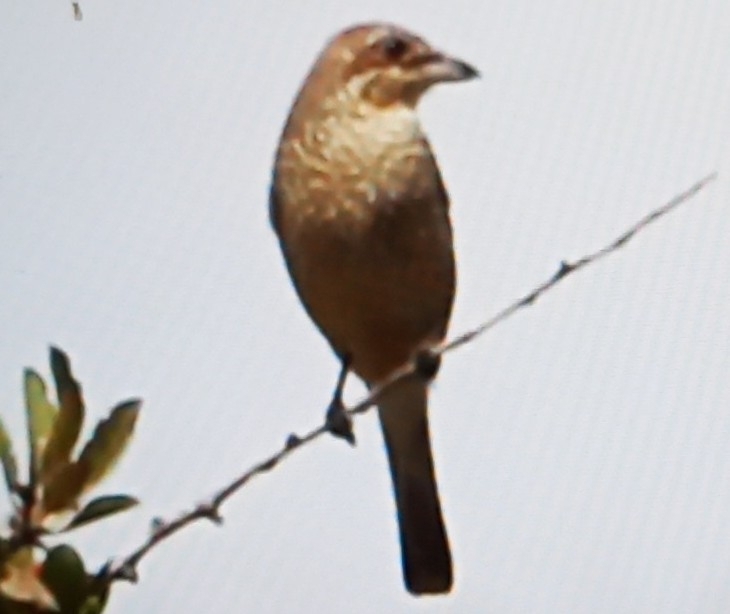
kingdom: Animalia
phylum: Chordata
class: Aves
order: Passeriformes
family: Laniidae
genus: Lanius
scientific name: Lanius collurio
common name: Red-backed shrike
